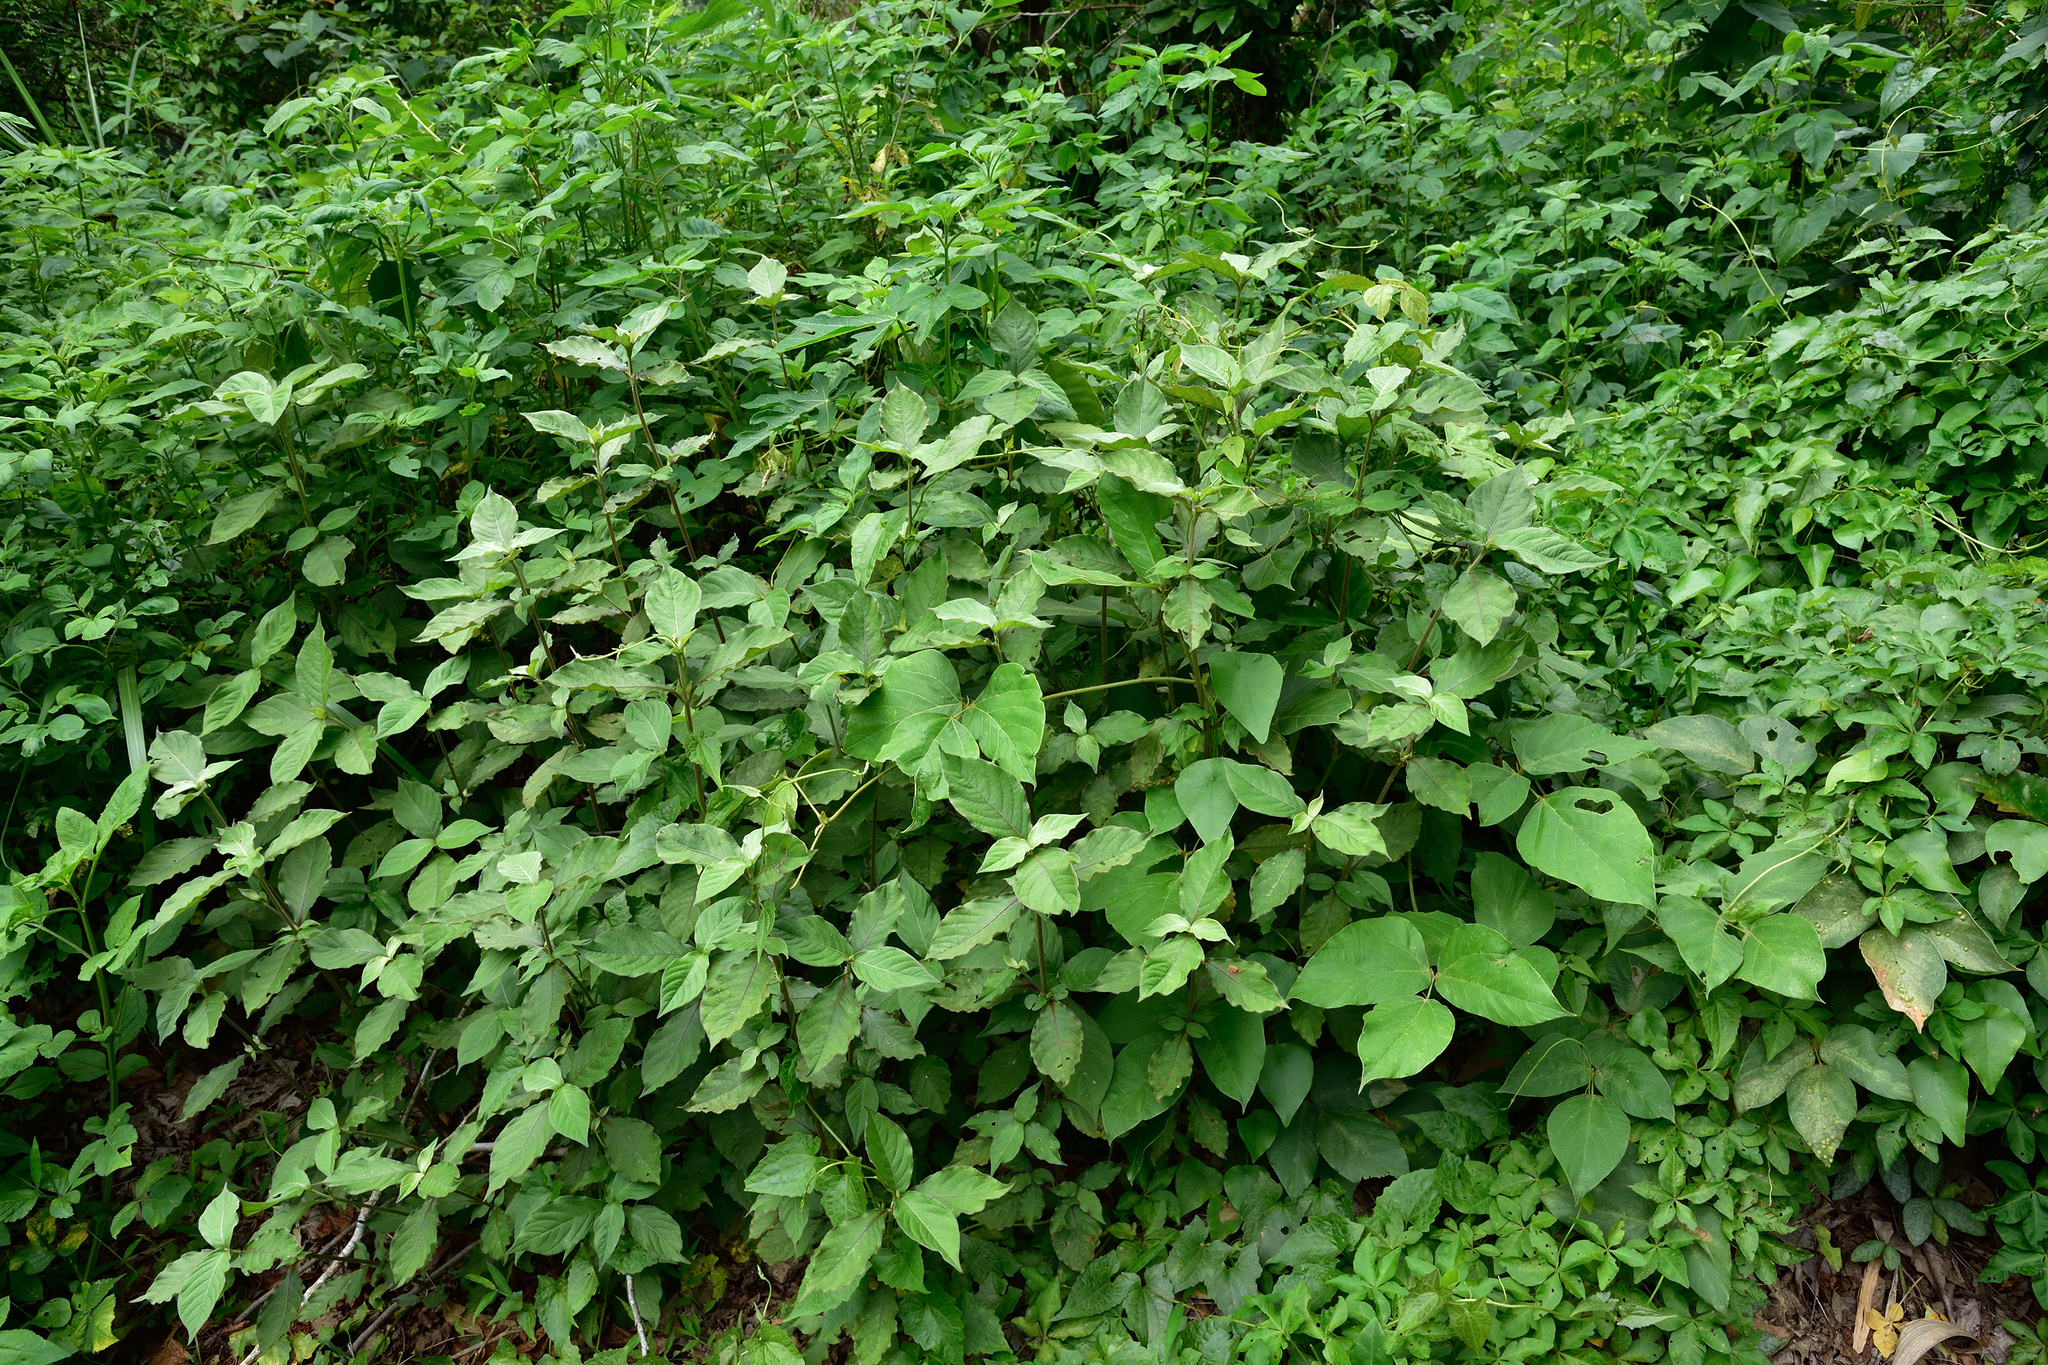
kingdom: Plantae
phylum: Tracheophyta
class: Magnoliopsida
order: Caryophyllales
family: Amaranthaceae
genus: Achyranthes
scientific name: Achyranthes aspera
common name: Devil's horsewhip
